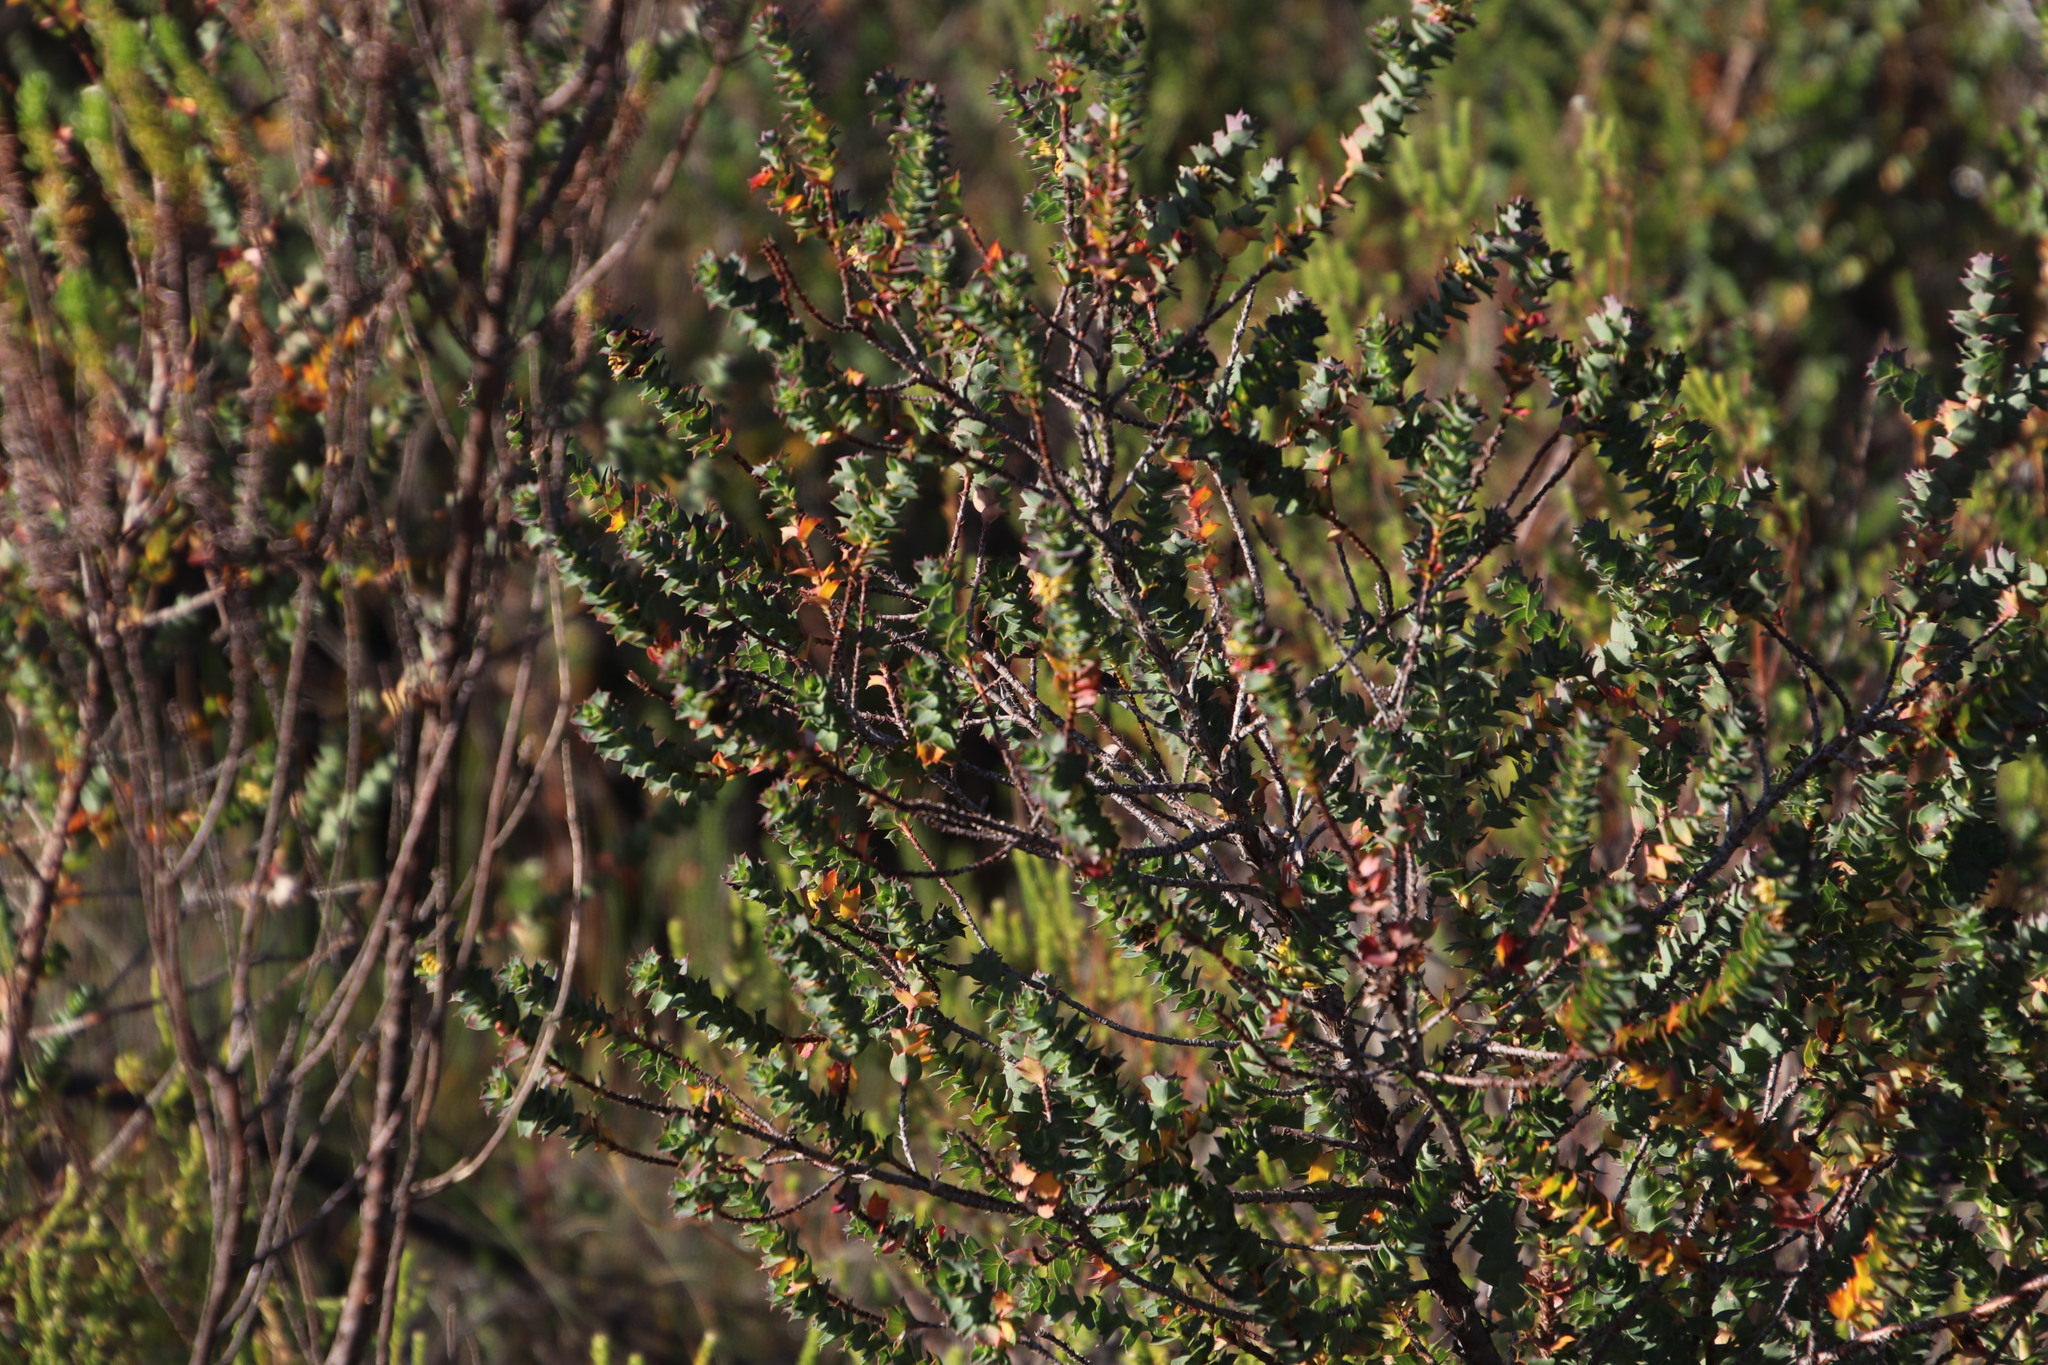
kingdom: Plantae
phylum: Tracheophyta
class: Magnoliopsida
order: Rosales
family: Rosaceae
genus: Cliffortia
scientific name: Cliffortia schlechteri
